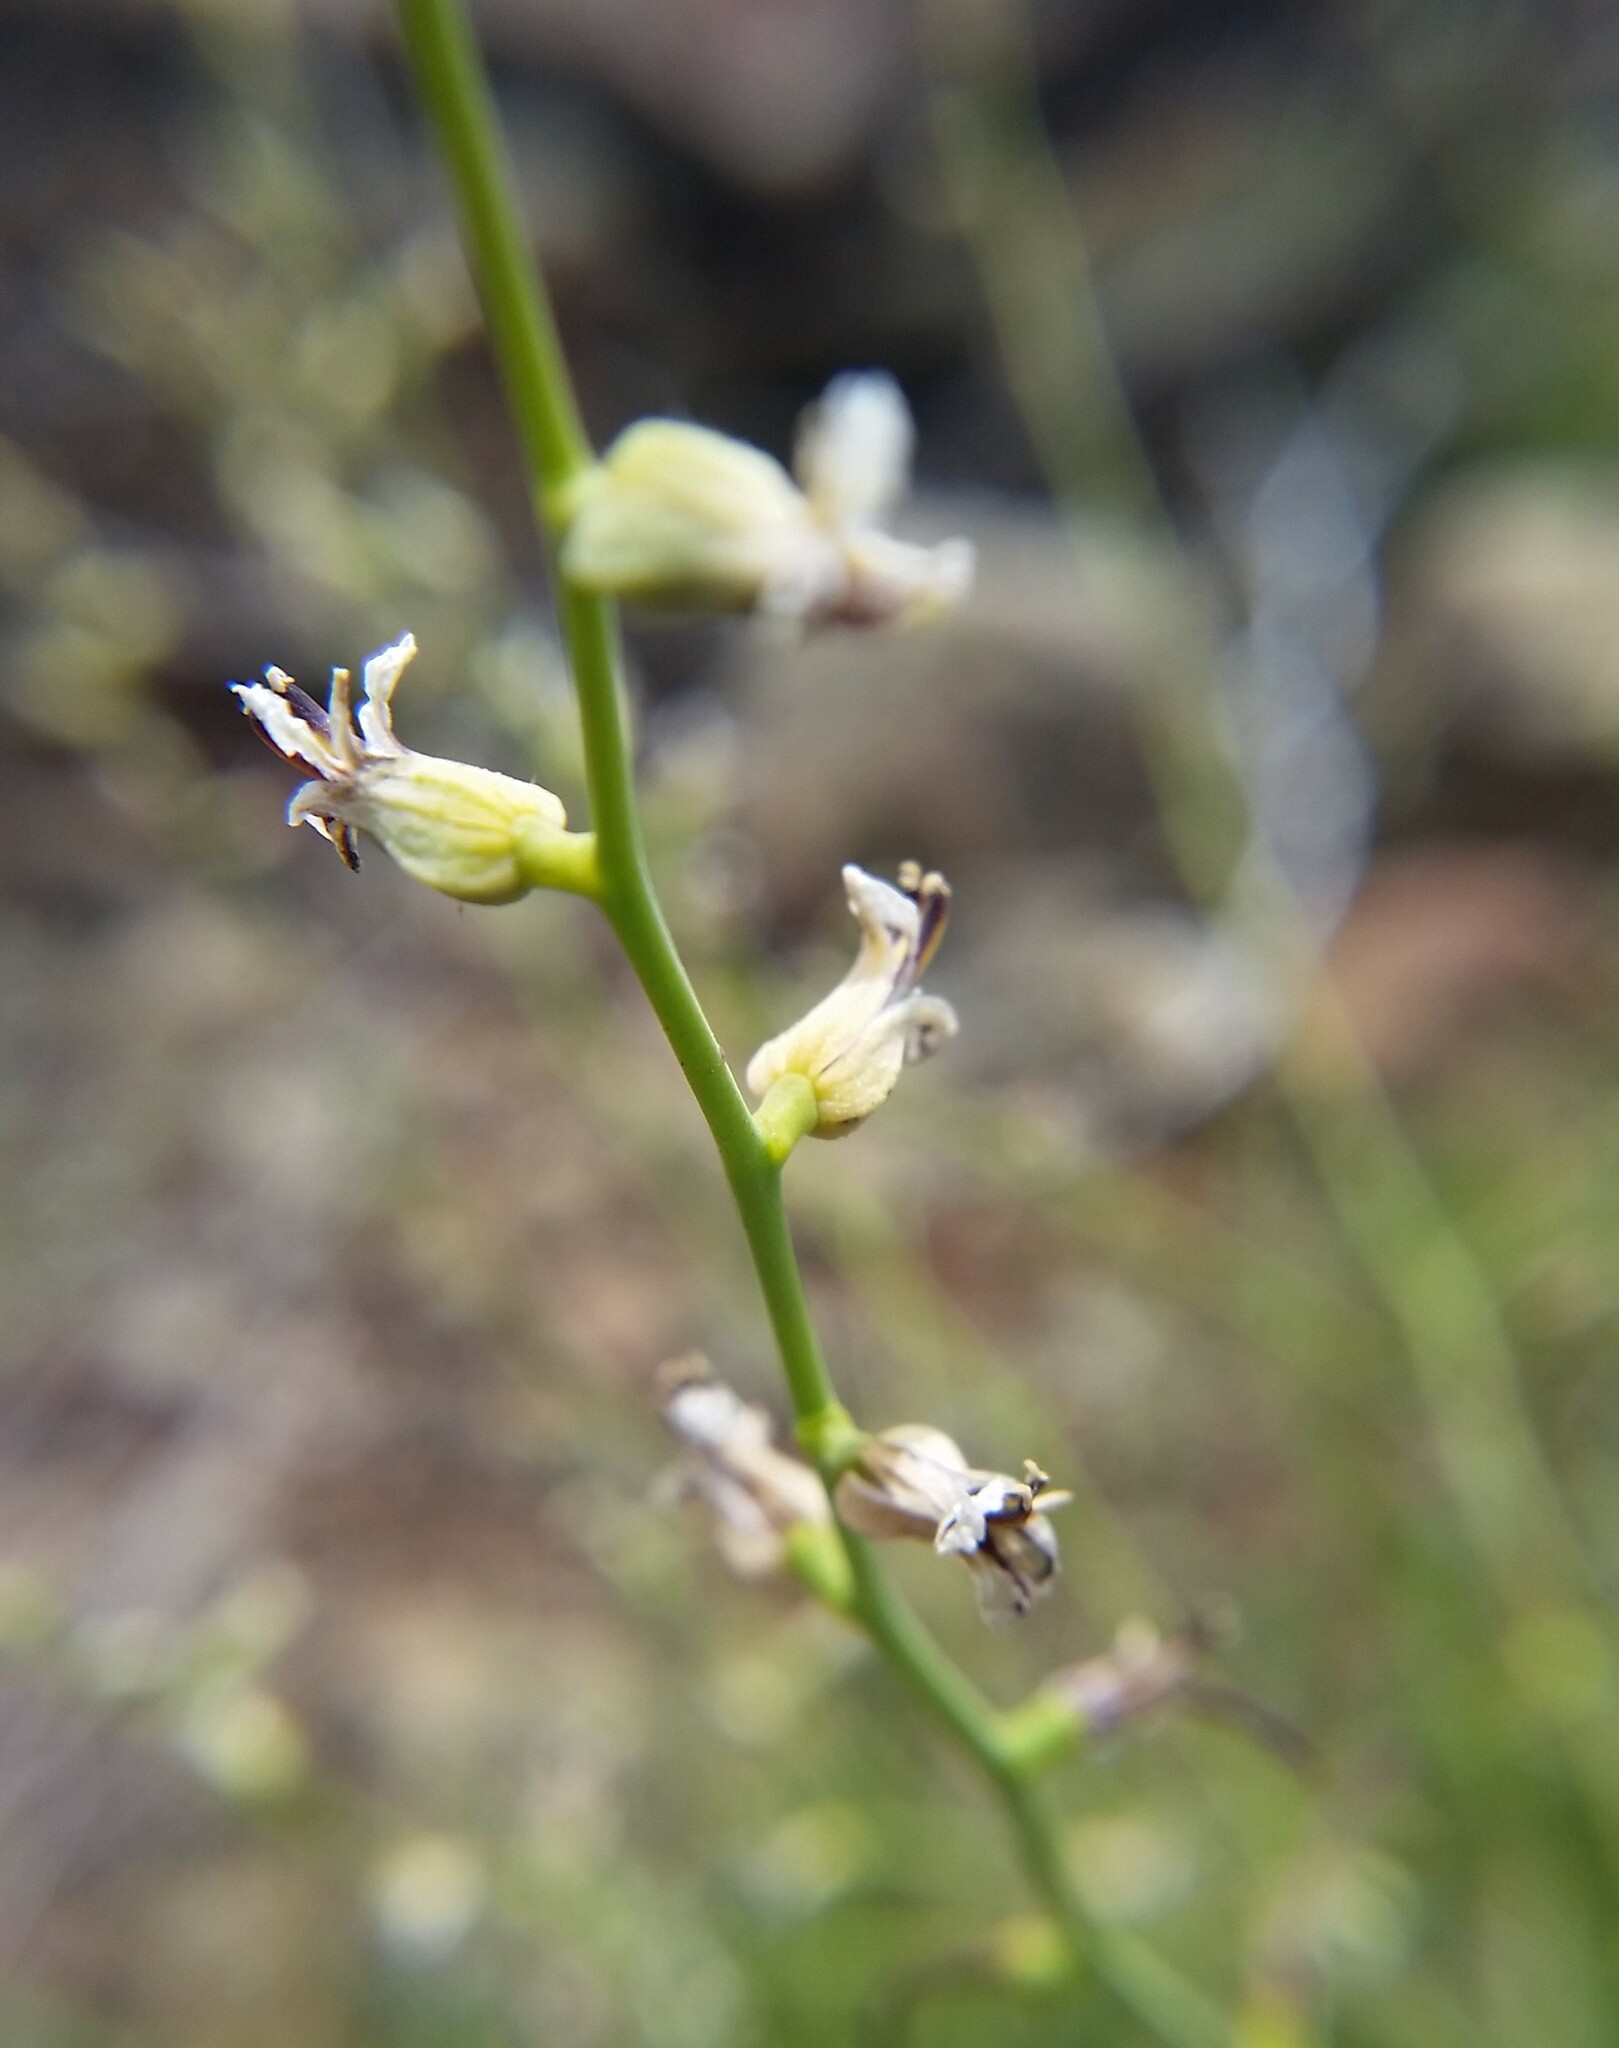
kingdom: Plantae
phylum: Tracheophyta
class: Magnoliopsida
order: Brassicales
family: Brassicaceae
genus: Streptanthus
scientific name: Streptanthus barbiger
